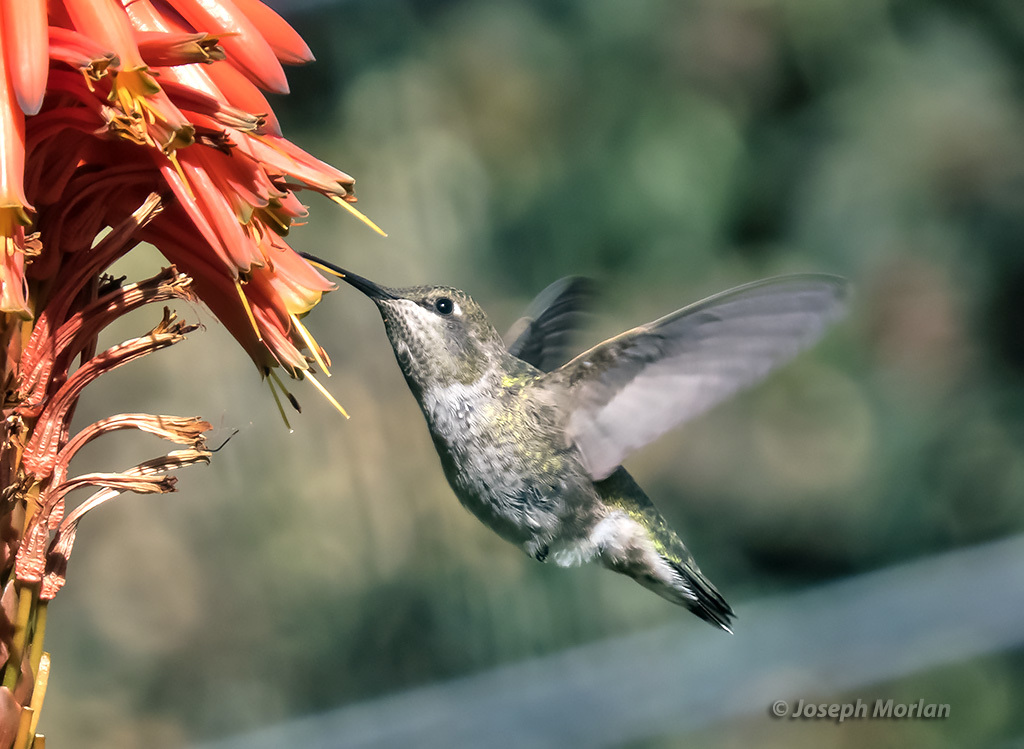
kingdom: Animalia
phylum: Chordata
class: Aves
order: Apodiformes
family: Trochilidae
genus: Calypte
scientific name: Calypte anna
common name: Anna's hummingbird
